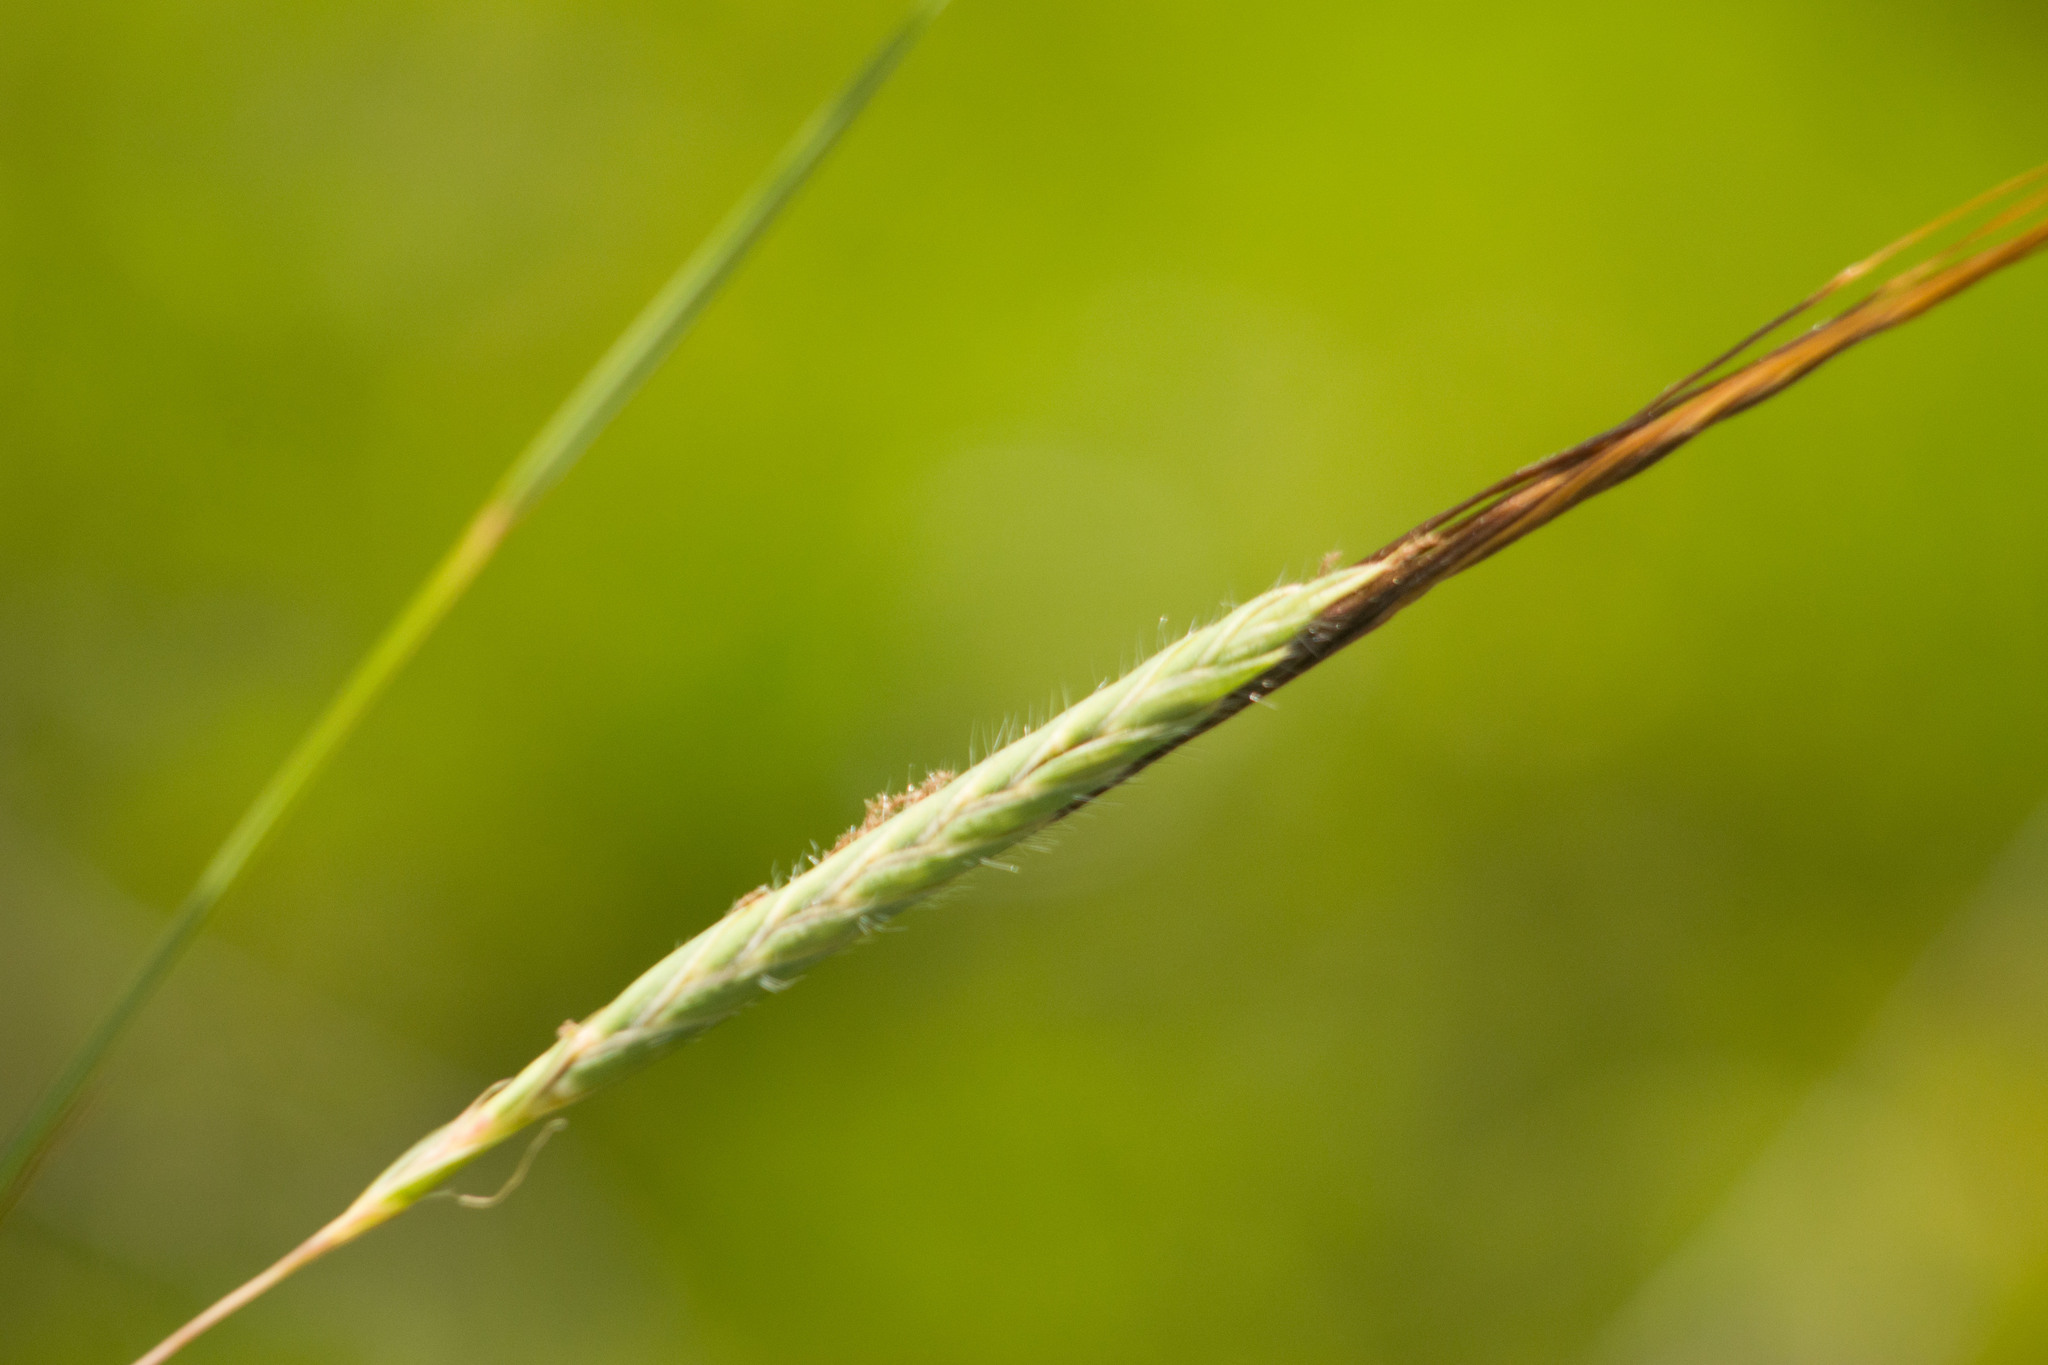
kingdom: Plantae
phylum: Tracheophyta
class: Liliopsida
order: Poales
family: Poaceae
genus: Heteropogon
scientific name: Heteropogon contortus
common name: Tanglehead
